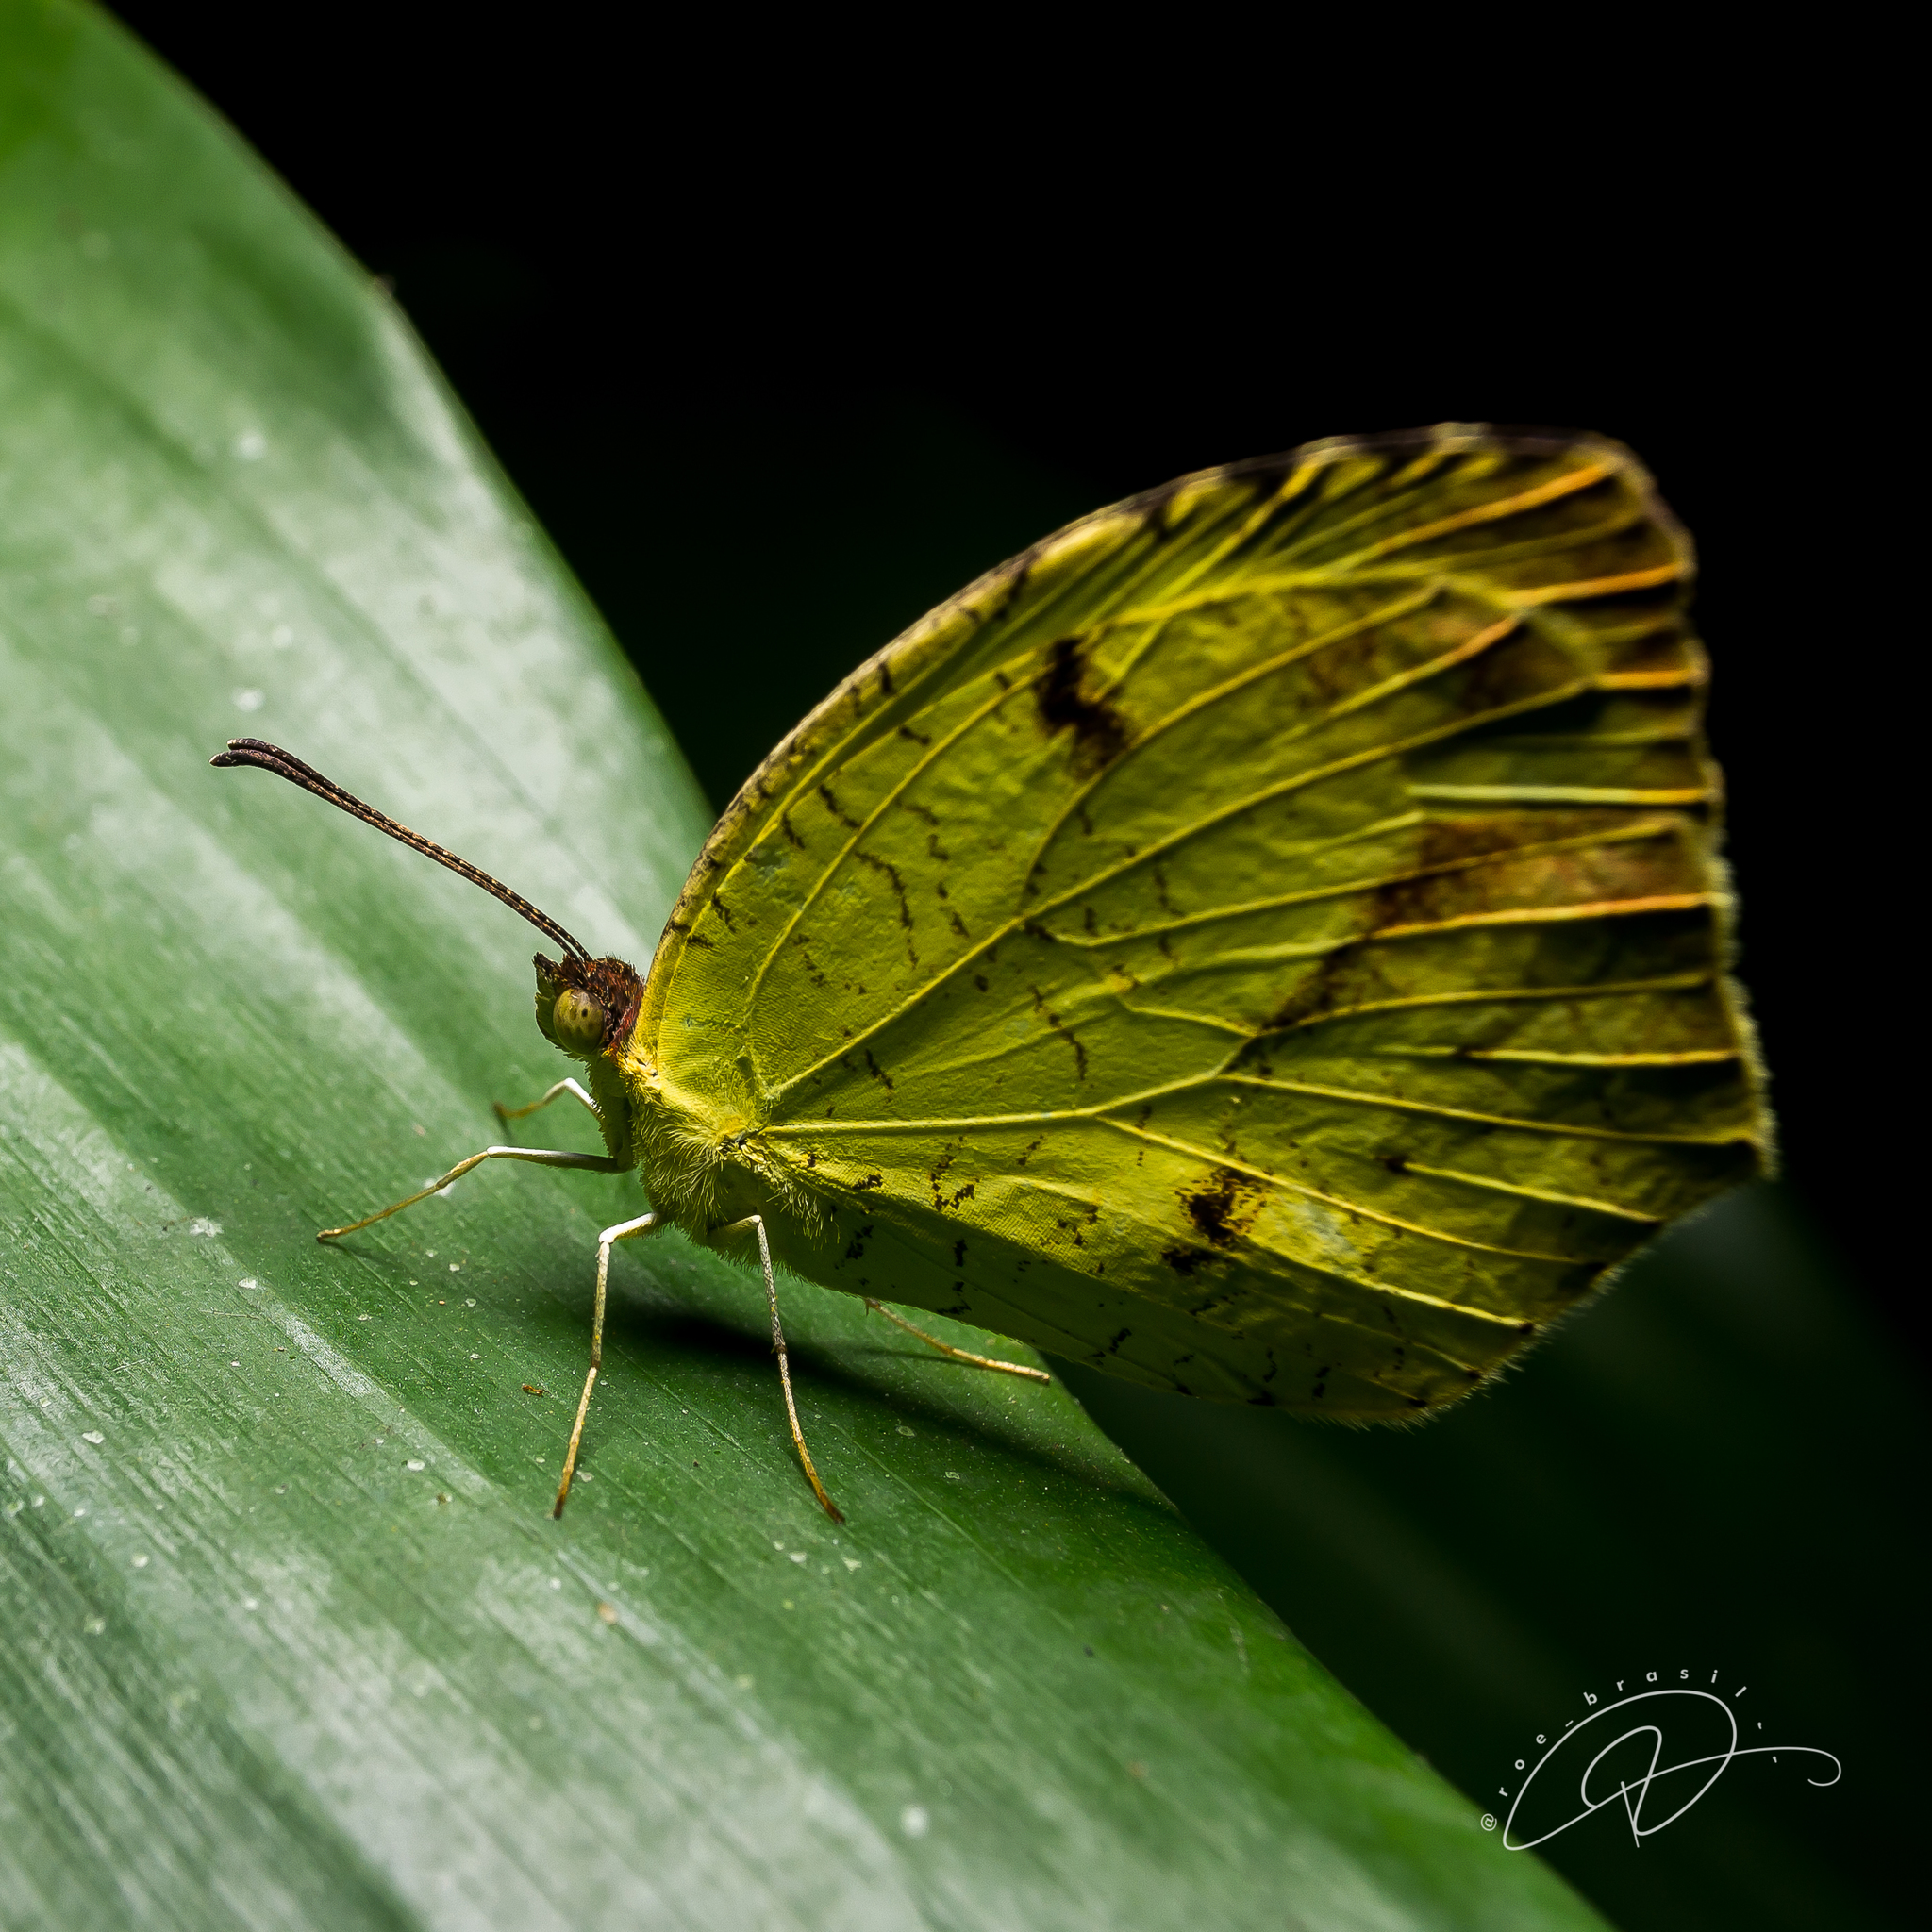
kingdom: Animalia
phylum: Arthropoda
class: Insecta
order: Lepidoptera
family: Pieridae
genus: Abaeis
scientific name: Abaeis
